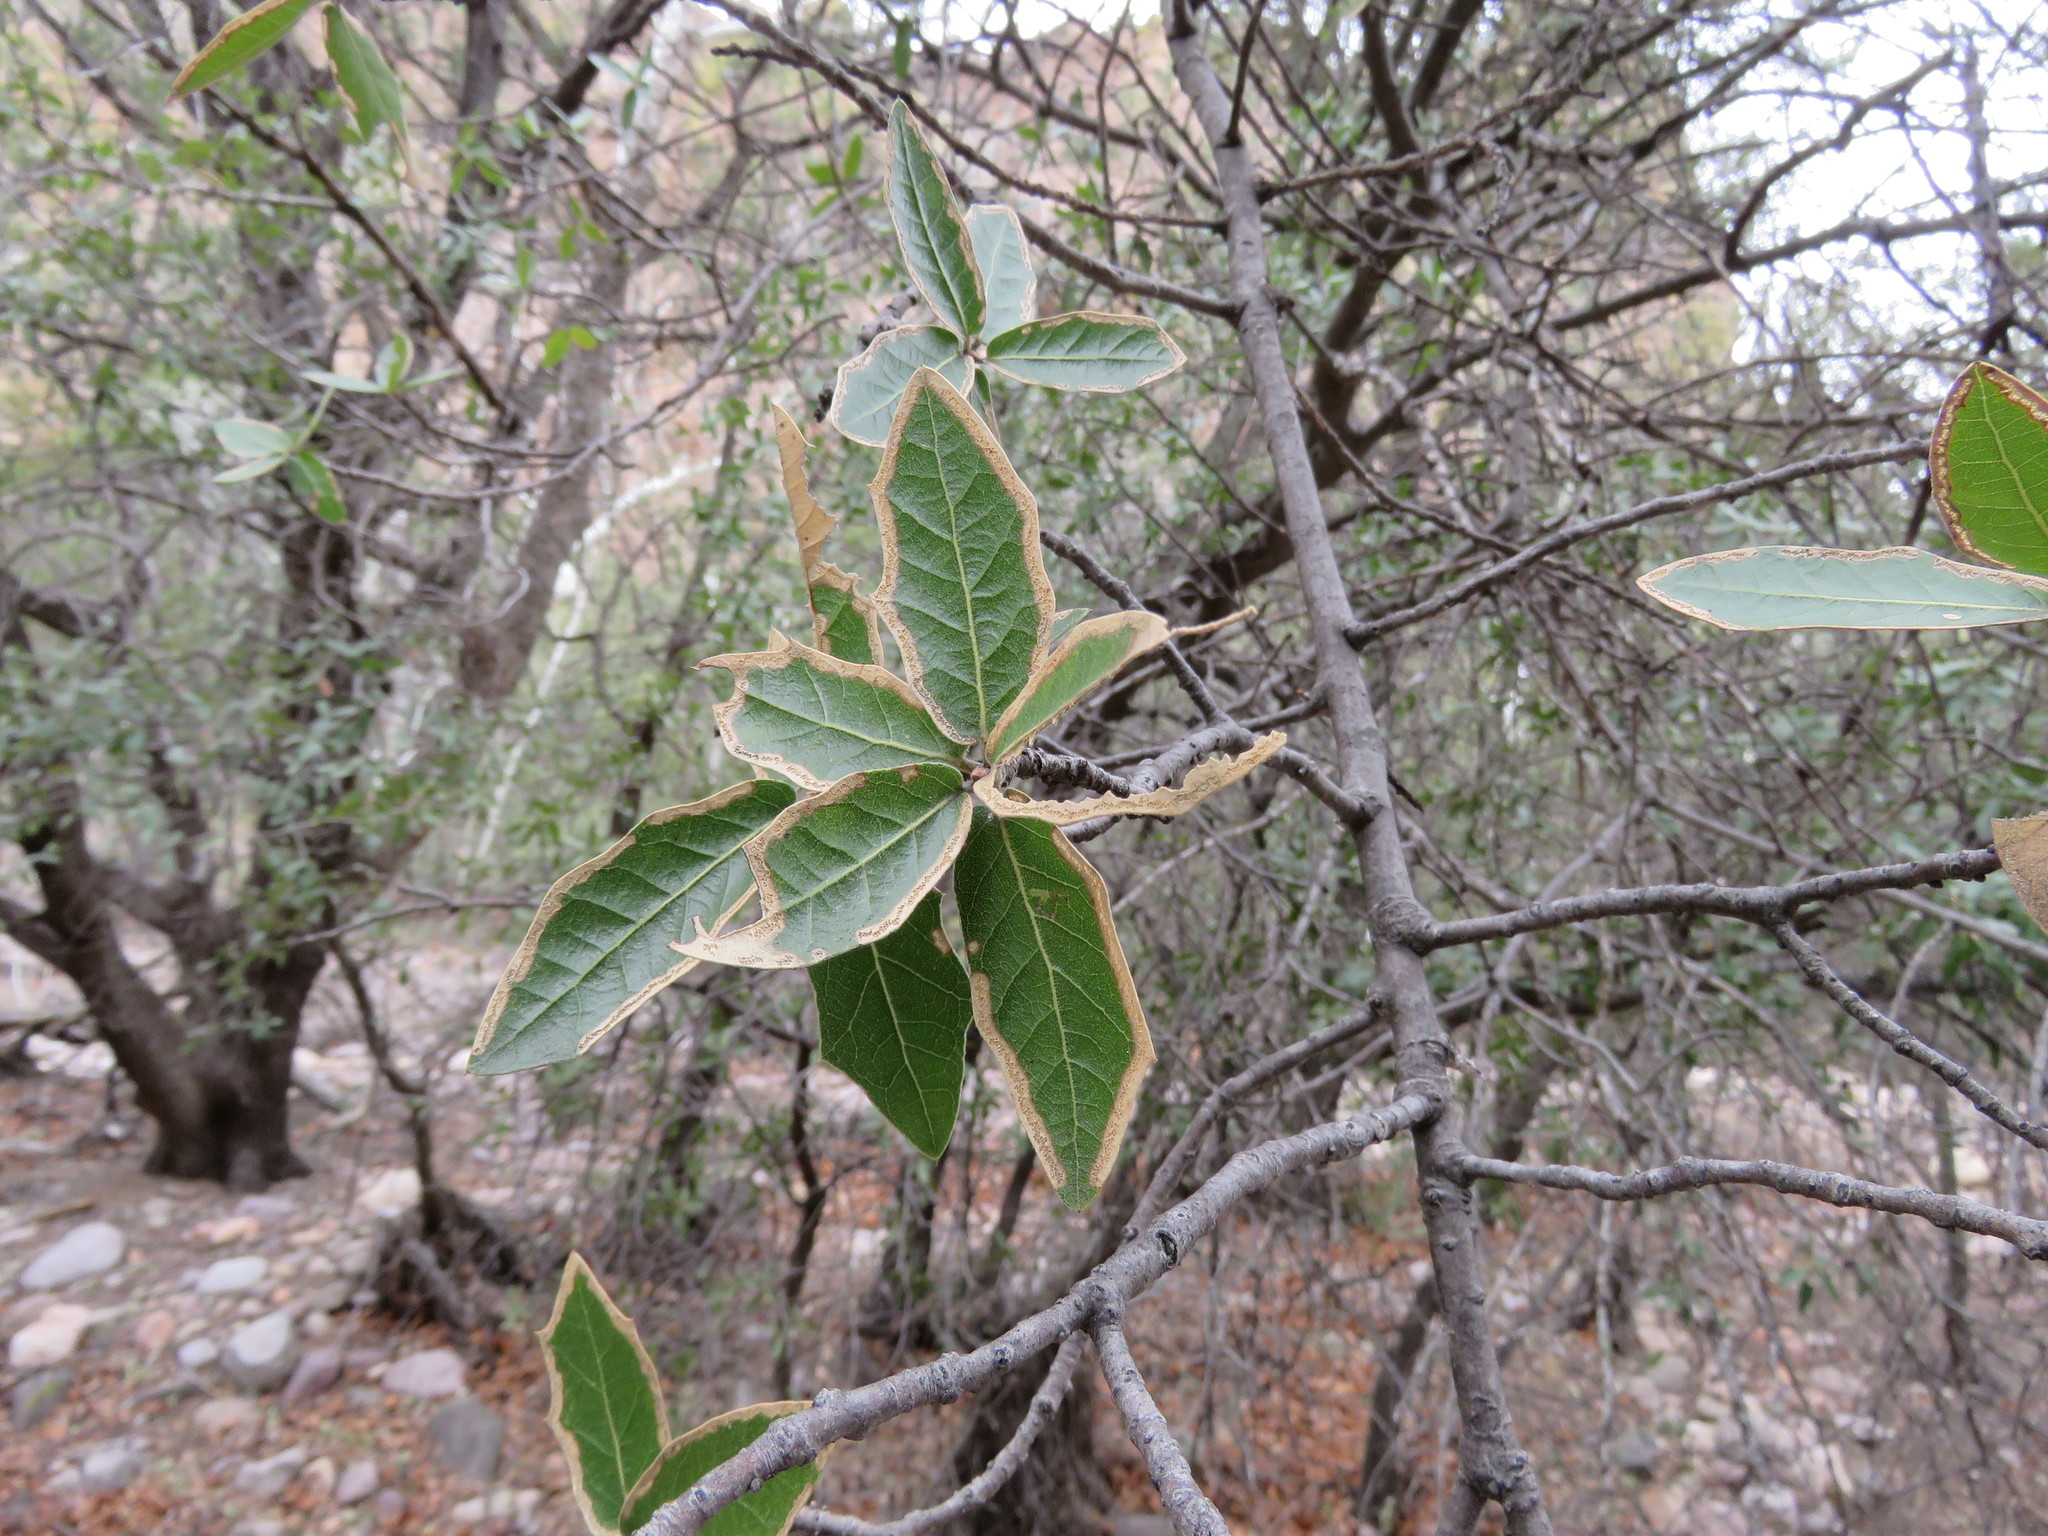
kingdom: Plantae
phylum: Tracheophyta
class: Magnoliopsida
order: Fagales
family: Fagaceae
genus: Quercus
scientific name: Quercus emoryi
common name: Emory oak
